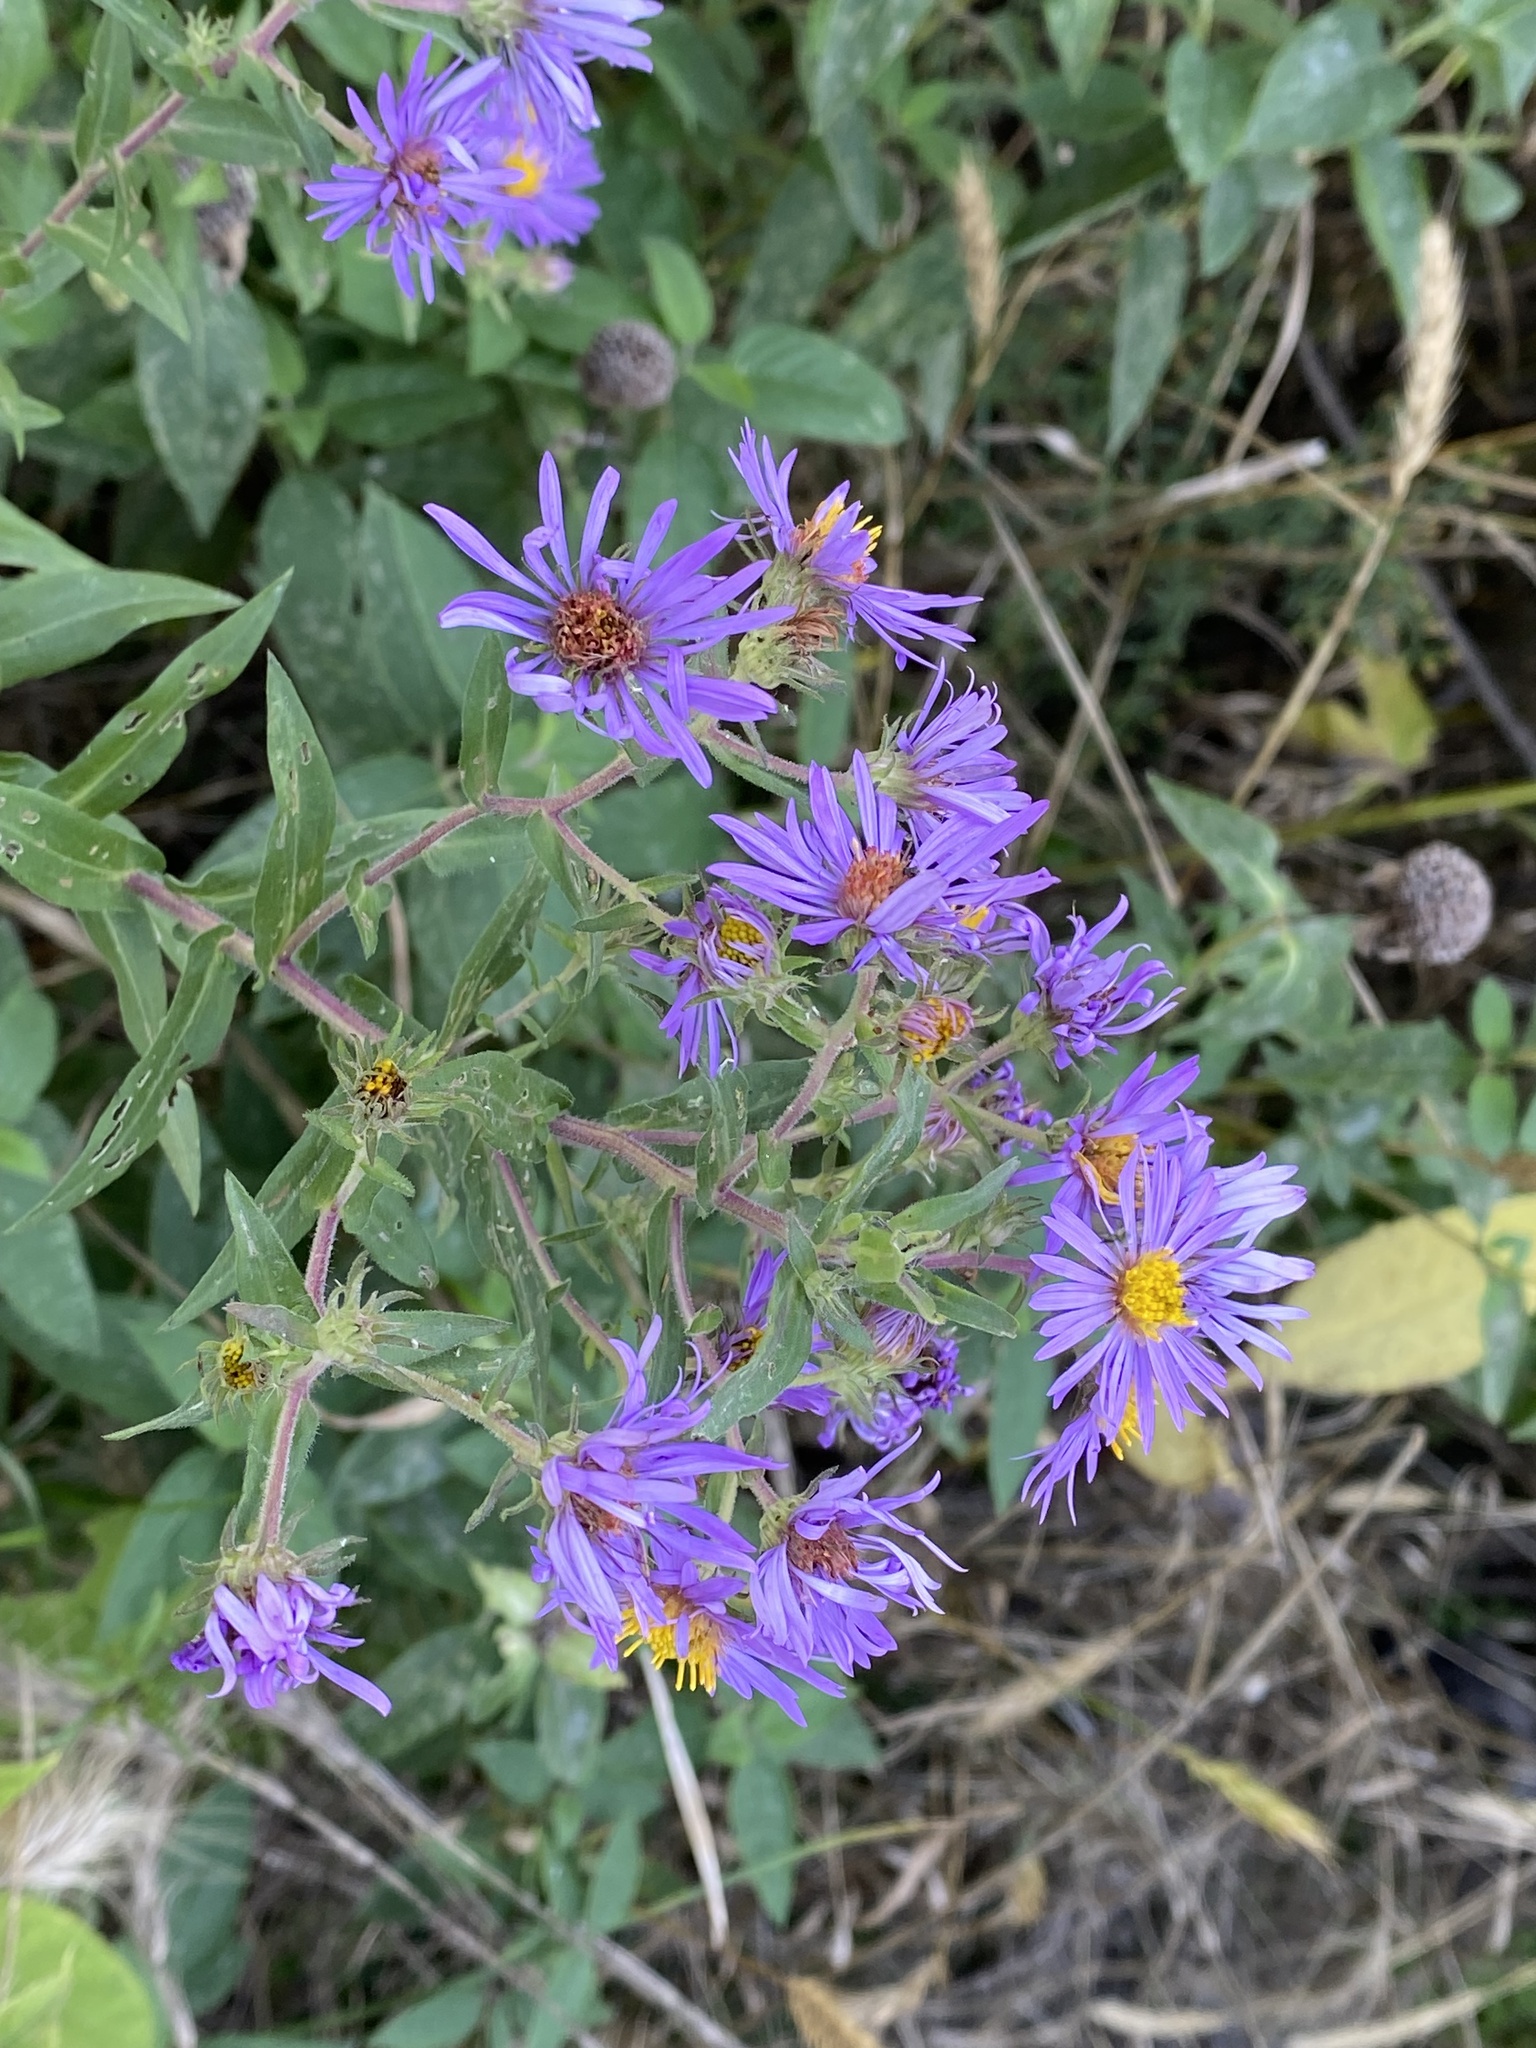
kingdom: Plantae
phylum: Tracheophyta
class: Magnoliopsida
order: Asterales
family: Asteraceae
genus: Symphyotrichum
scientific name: Symphyotrichum novae-angliae
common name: Michaelmas daisy
